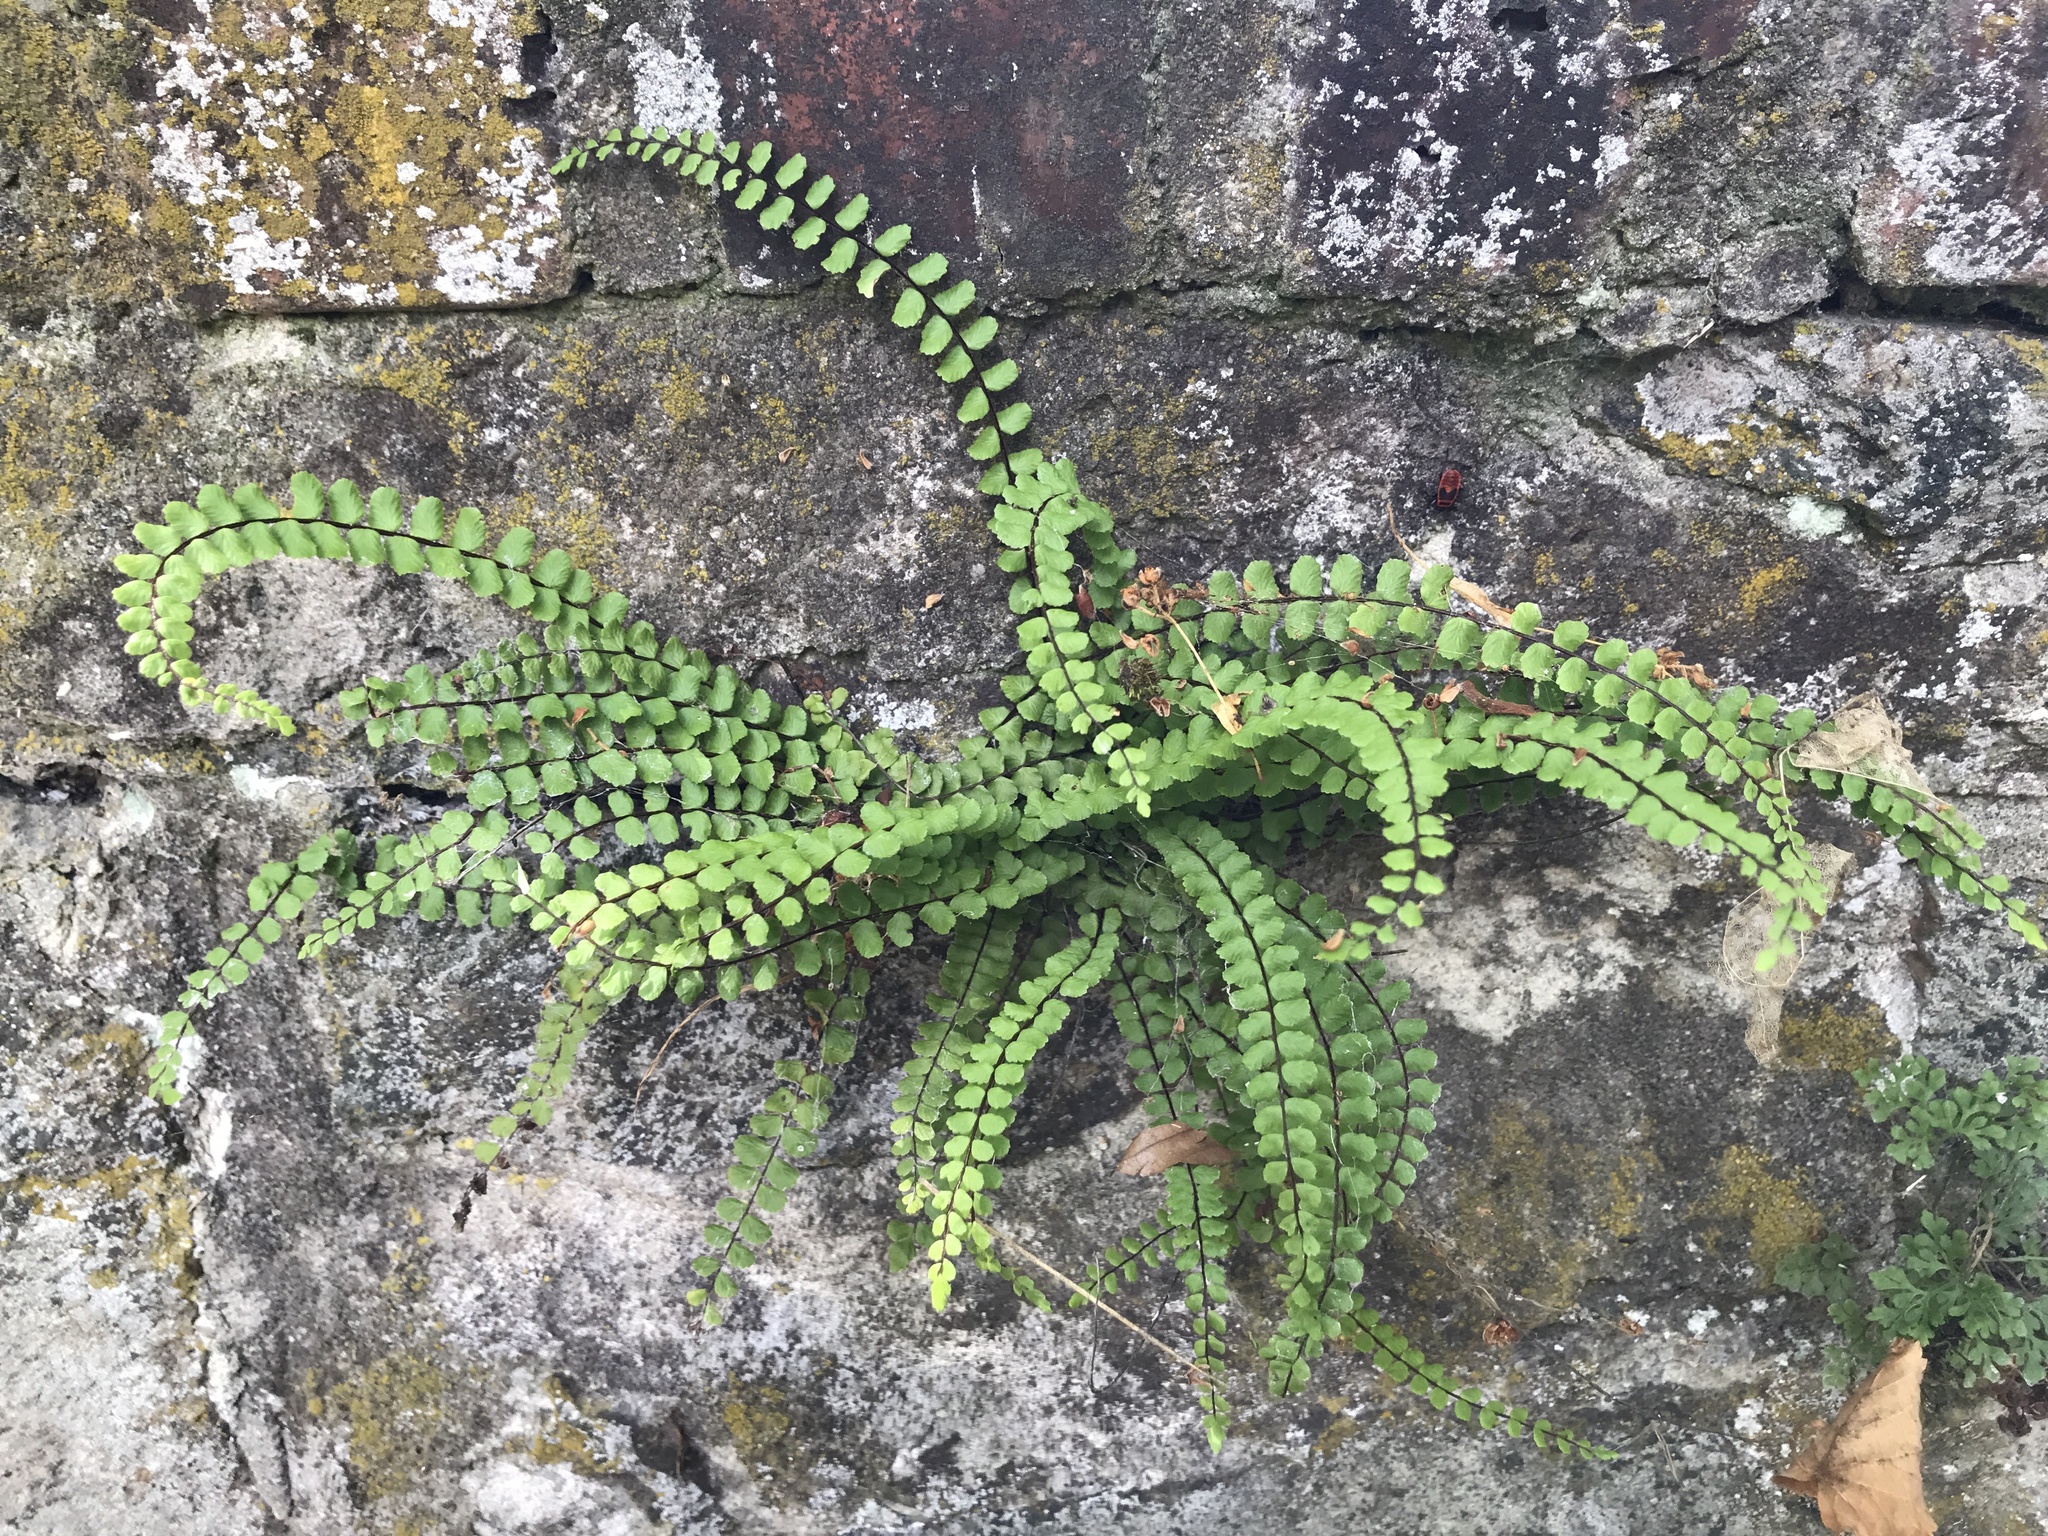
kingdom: Plantae
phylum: Tracheophyta
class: Polypodiopsida
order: Polypodiales
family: Aspleniaceae
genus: Asplenium
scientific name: Asplenium trichomanes
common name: Maidenhair spleenwort
